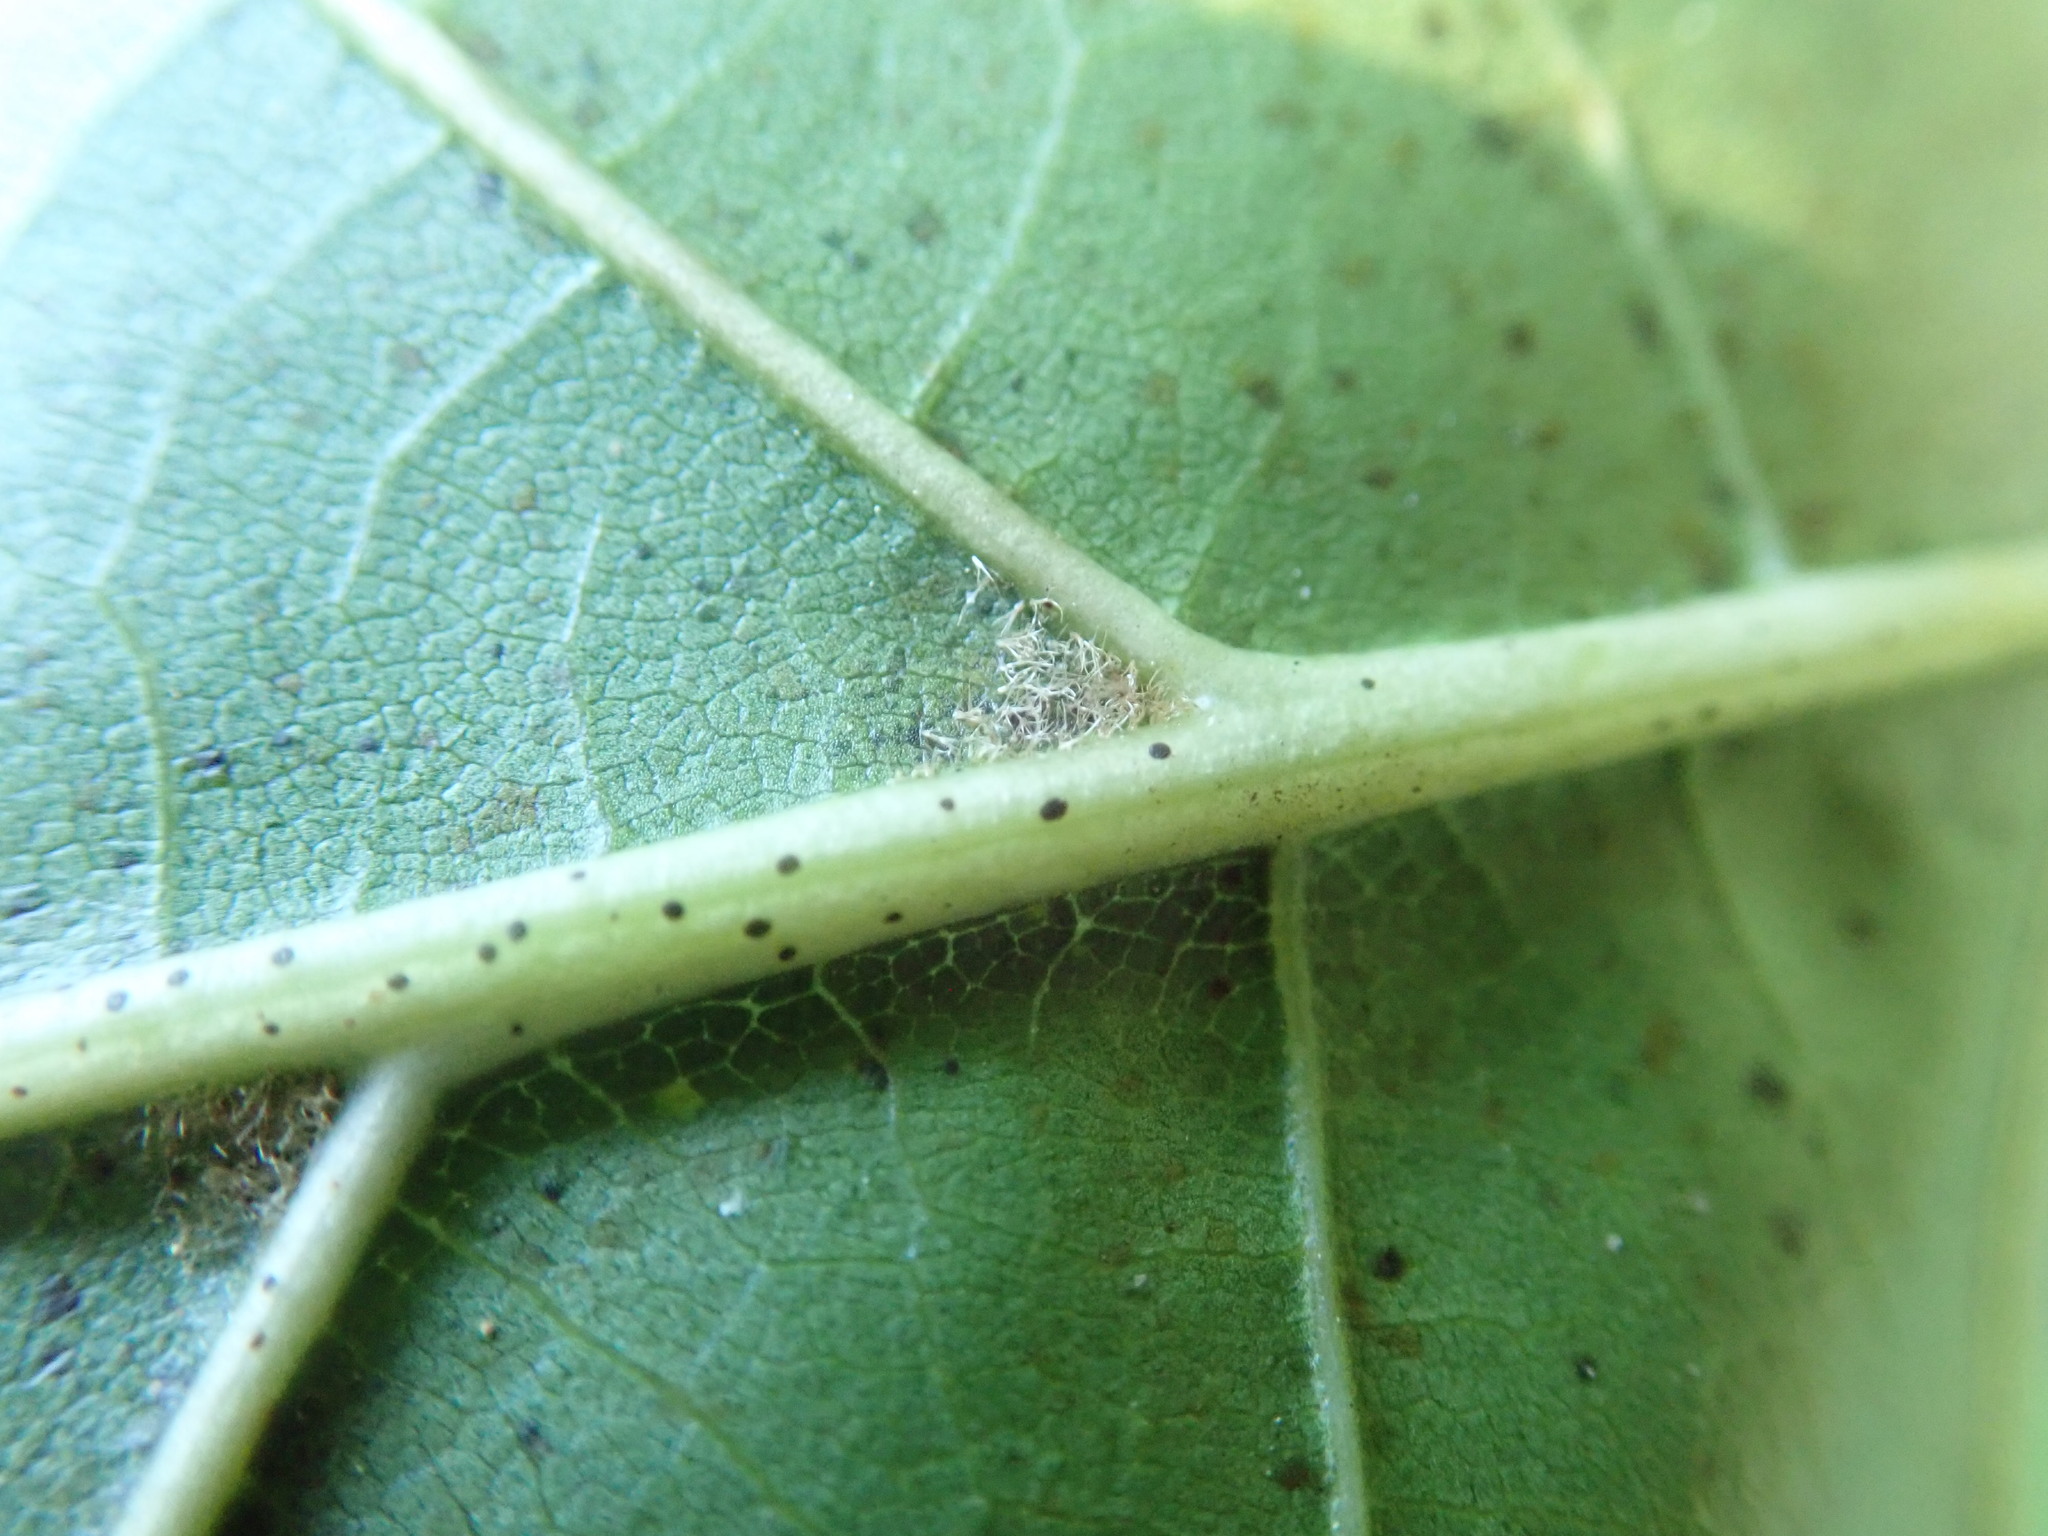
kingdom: Plantae
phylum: Tracheophyta
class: Magnoliopsida
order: Fagales
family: Fagaceae
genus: Quercus
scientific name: Quercus velutina
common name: Black oak
